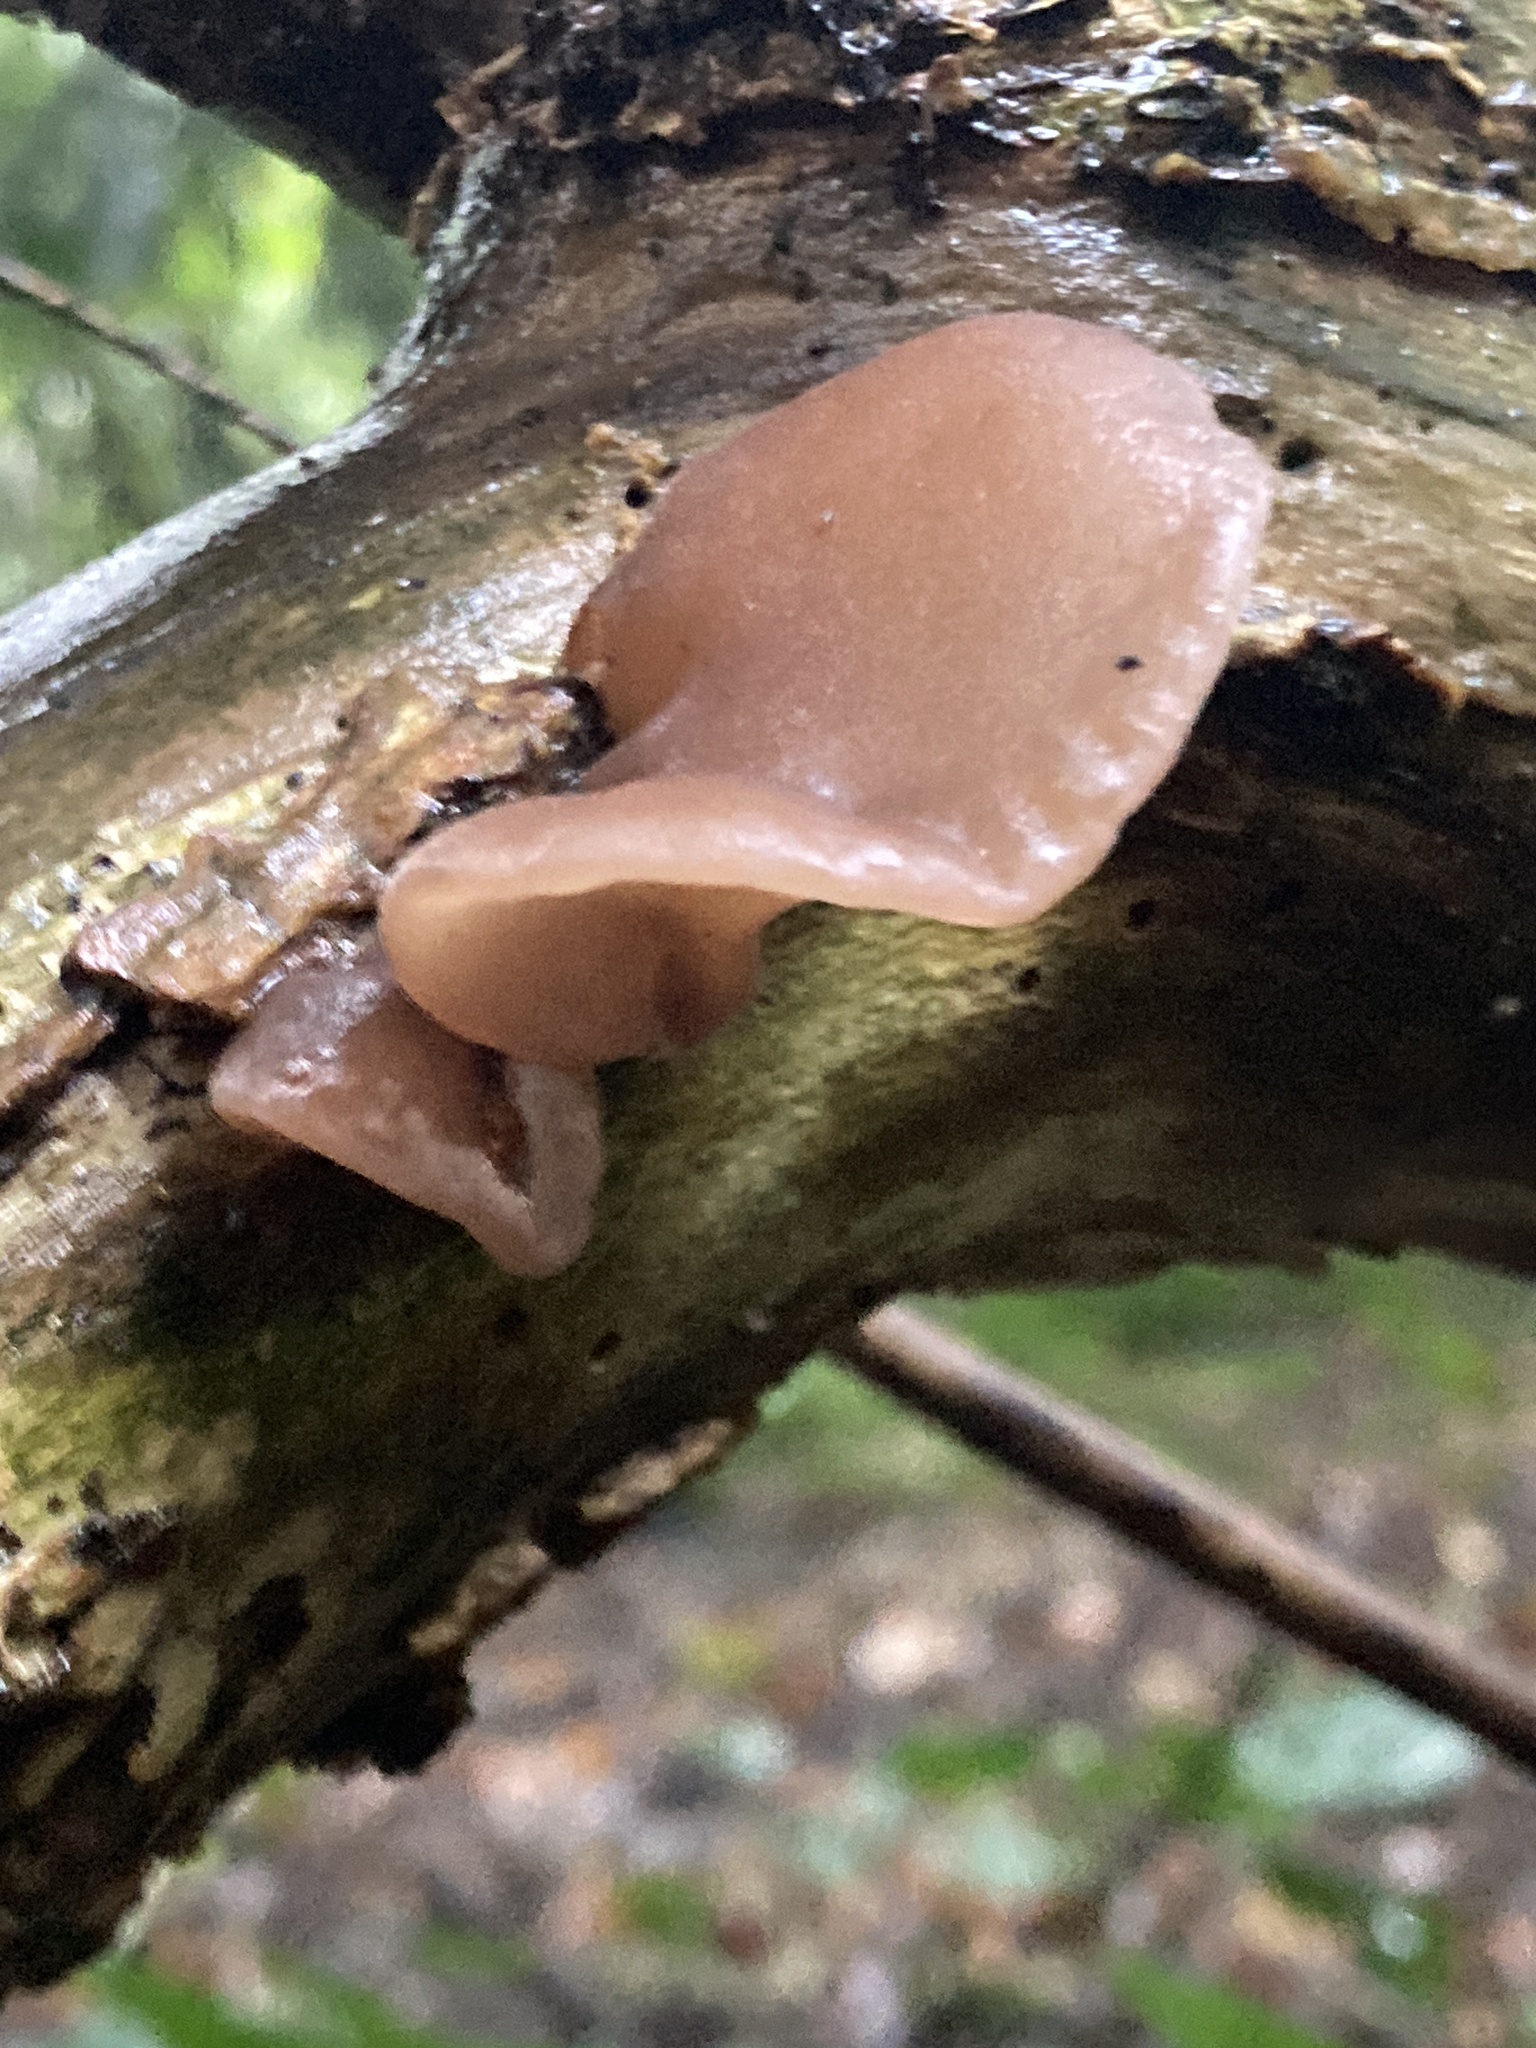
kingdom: Fungi
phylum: Basidiomycota
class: Agaricomycetes
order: Auriculariales
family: Auriculariaceae
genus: Auricularia
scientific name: Auricularia auricula-judae
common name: Jelly ear
